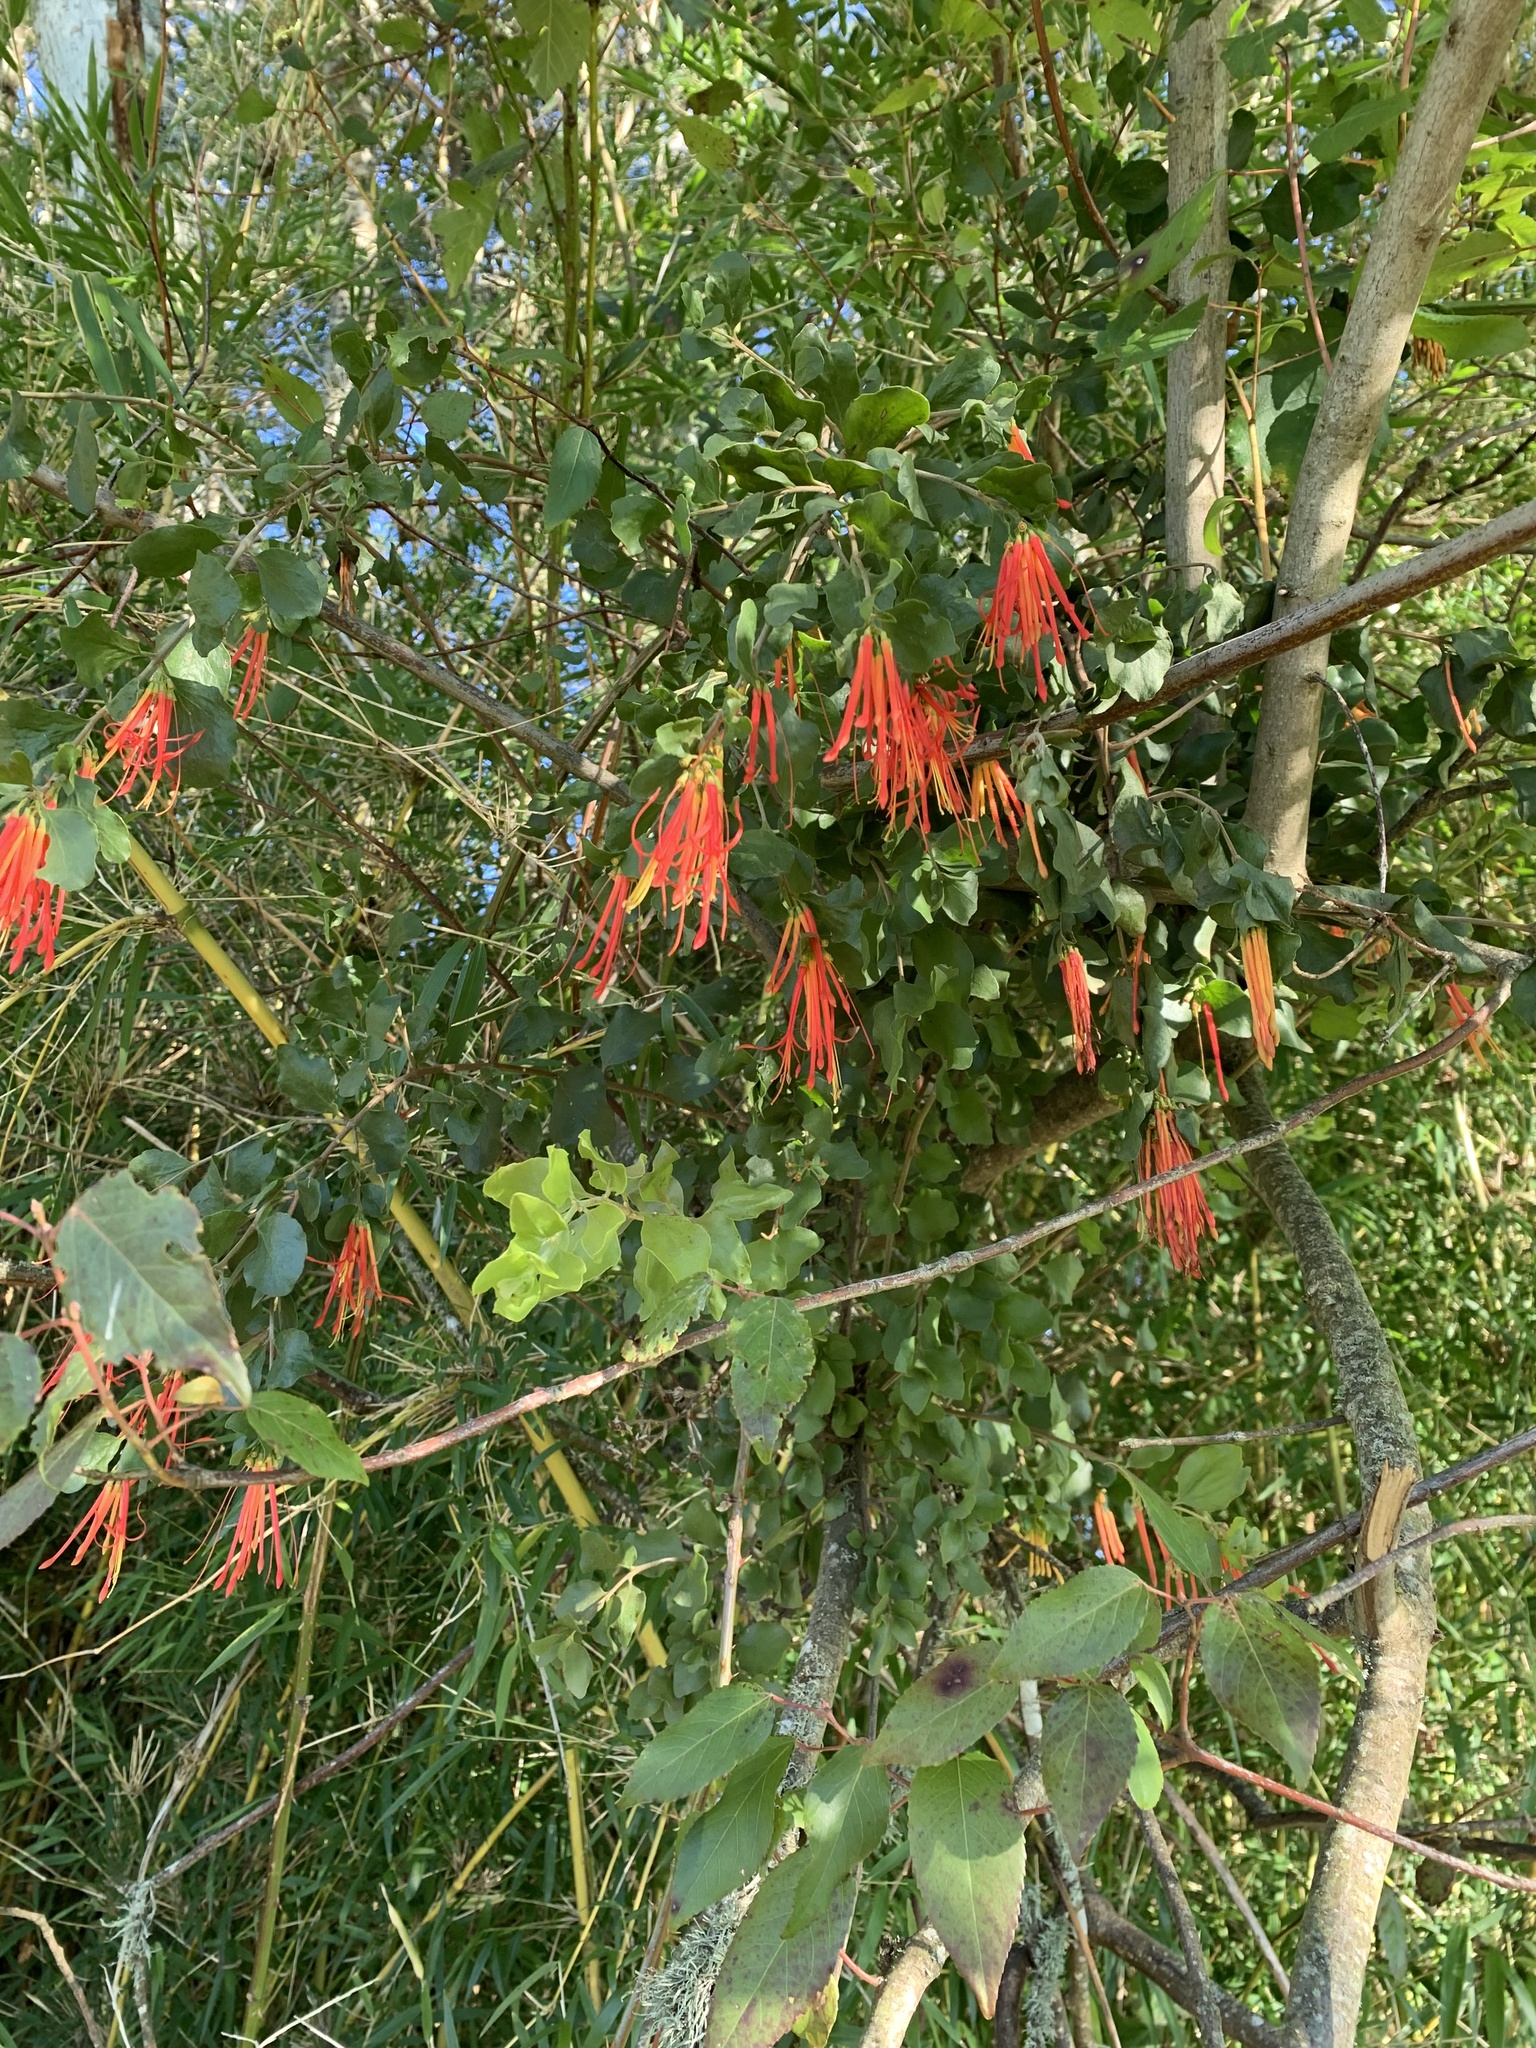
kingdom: Plantae
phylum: Tracheophyta
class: Magnoliopsida
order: Santalales
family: Loranthaceae
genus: Tristerix
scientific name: Tristerix corymbosus
